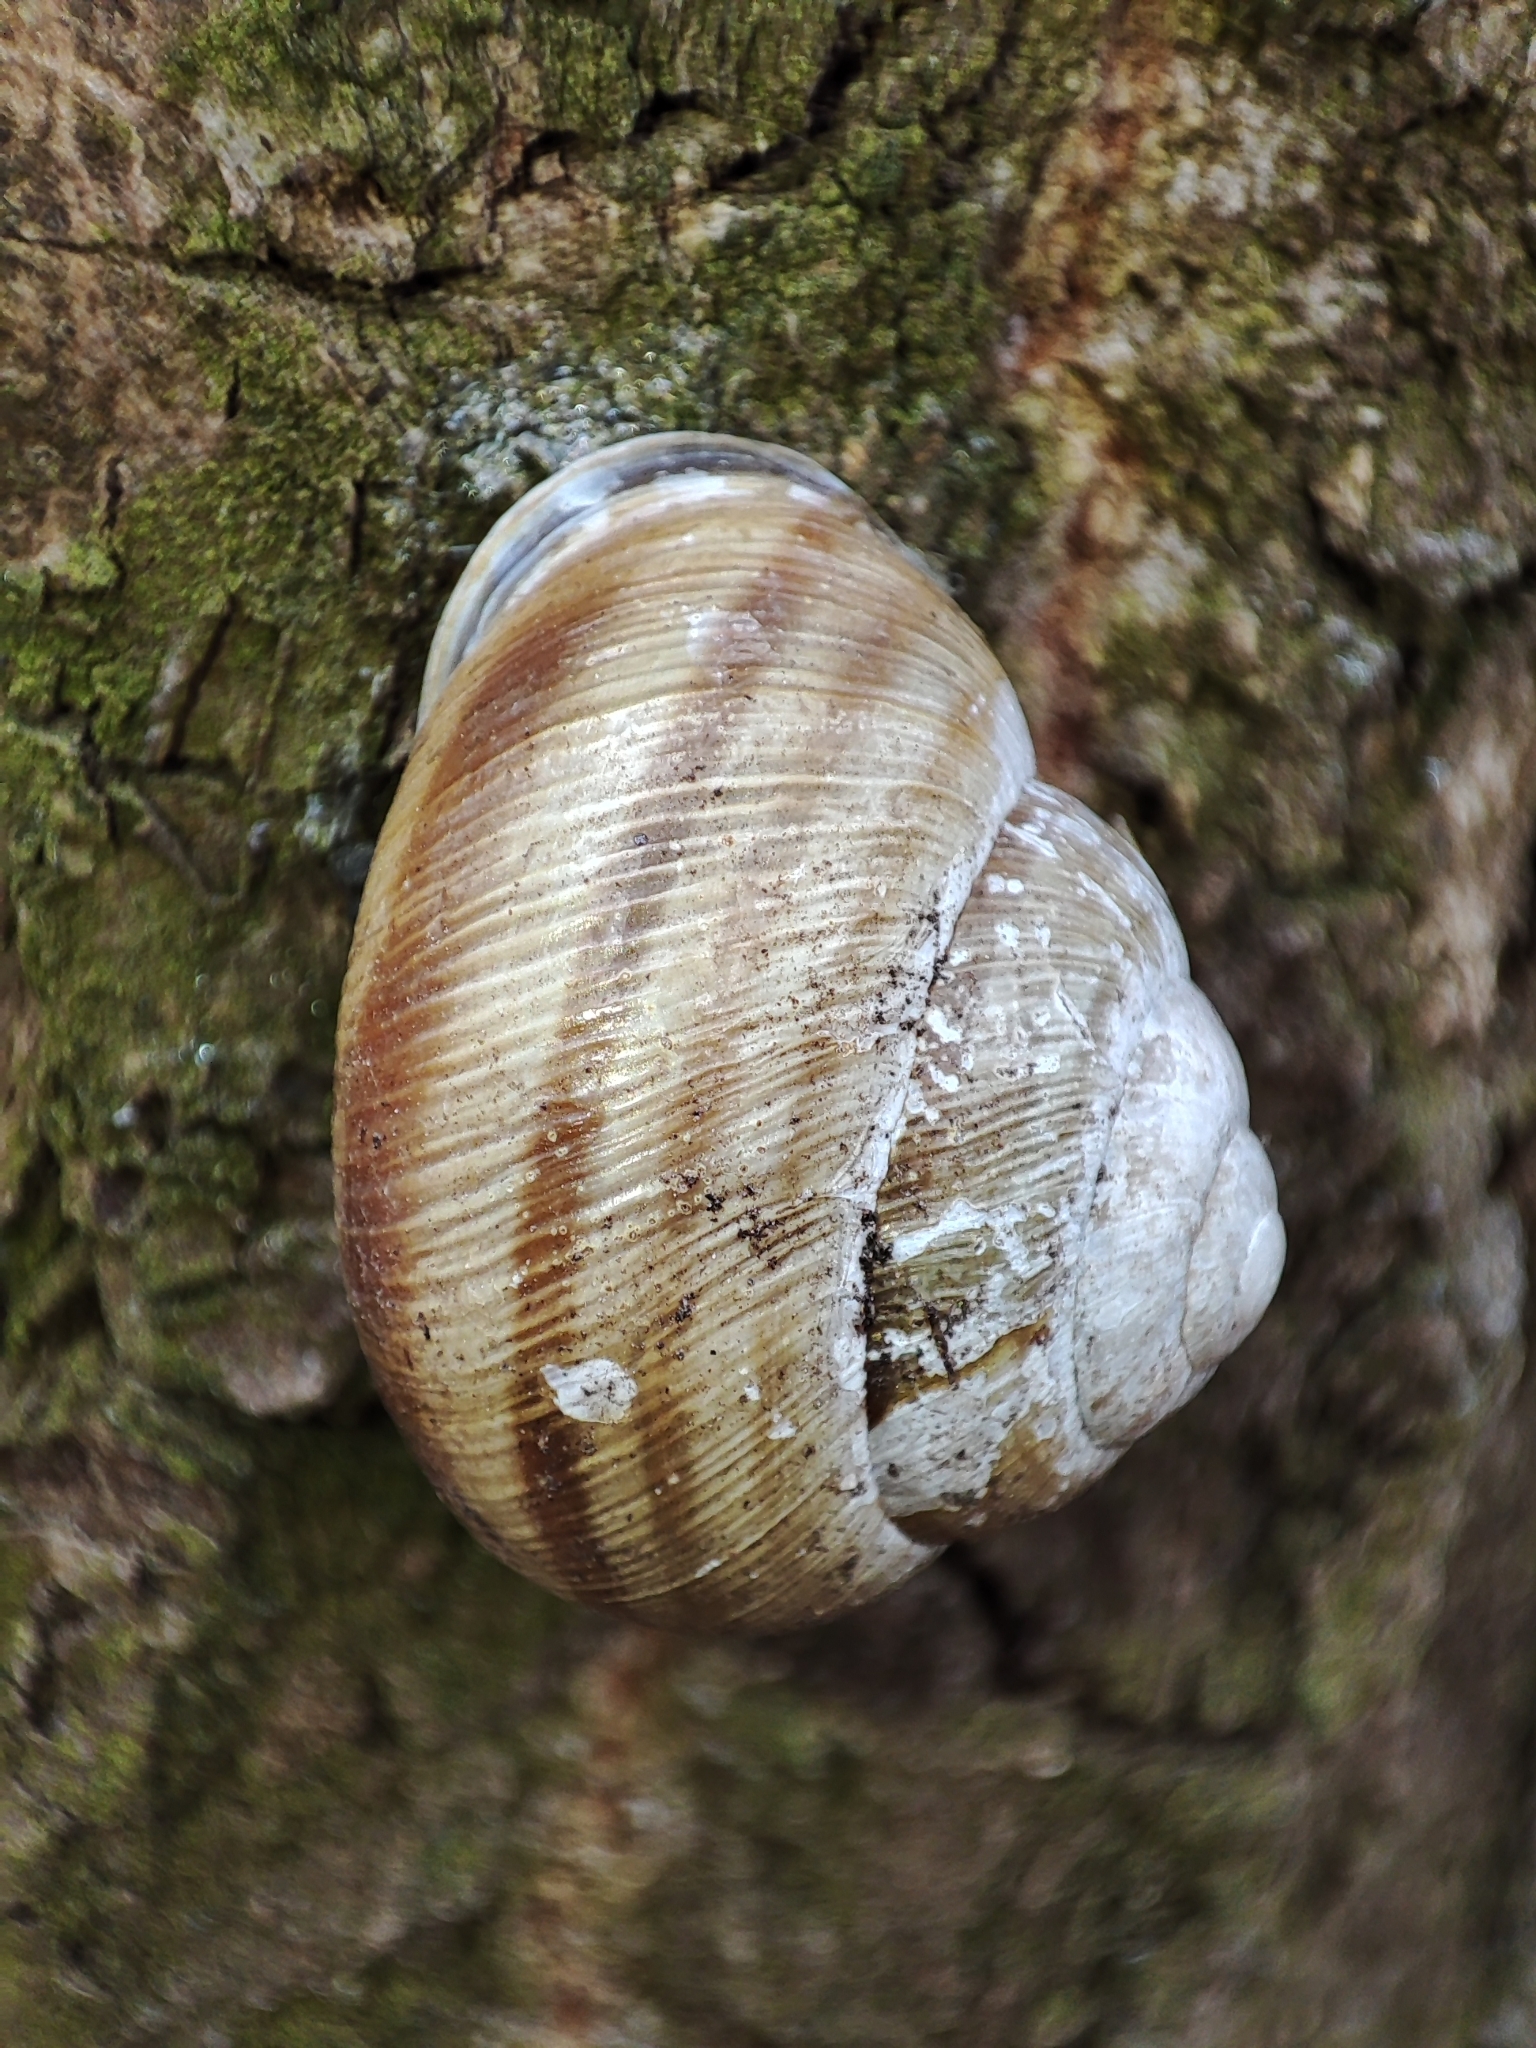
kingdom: Animalia
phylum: Mollusca
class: Gastropoda
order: Stylommatophora
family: Helicidae
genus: Caucasotachea
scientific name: Caucasotachea vindobonensis
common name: European helicid land snail
